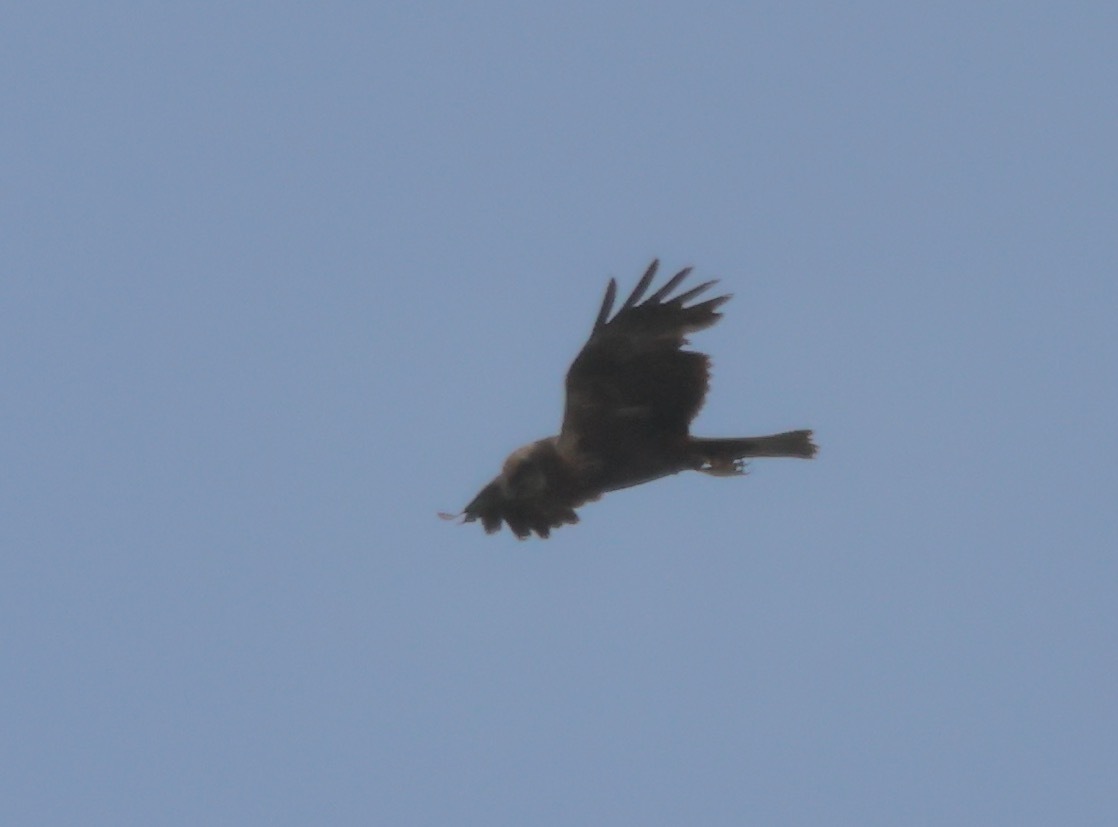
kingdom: Animalia
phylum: Chordata
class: Aves
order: Accipitriformes
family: Accipitridae
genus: Circus
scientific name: Circus aeruginosus
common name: Western marsh harrier
